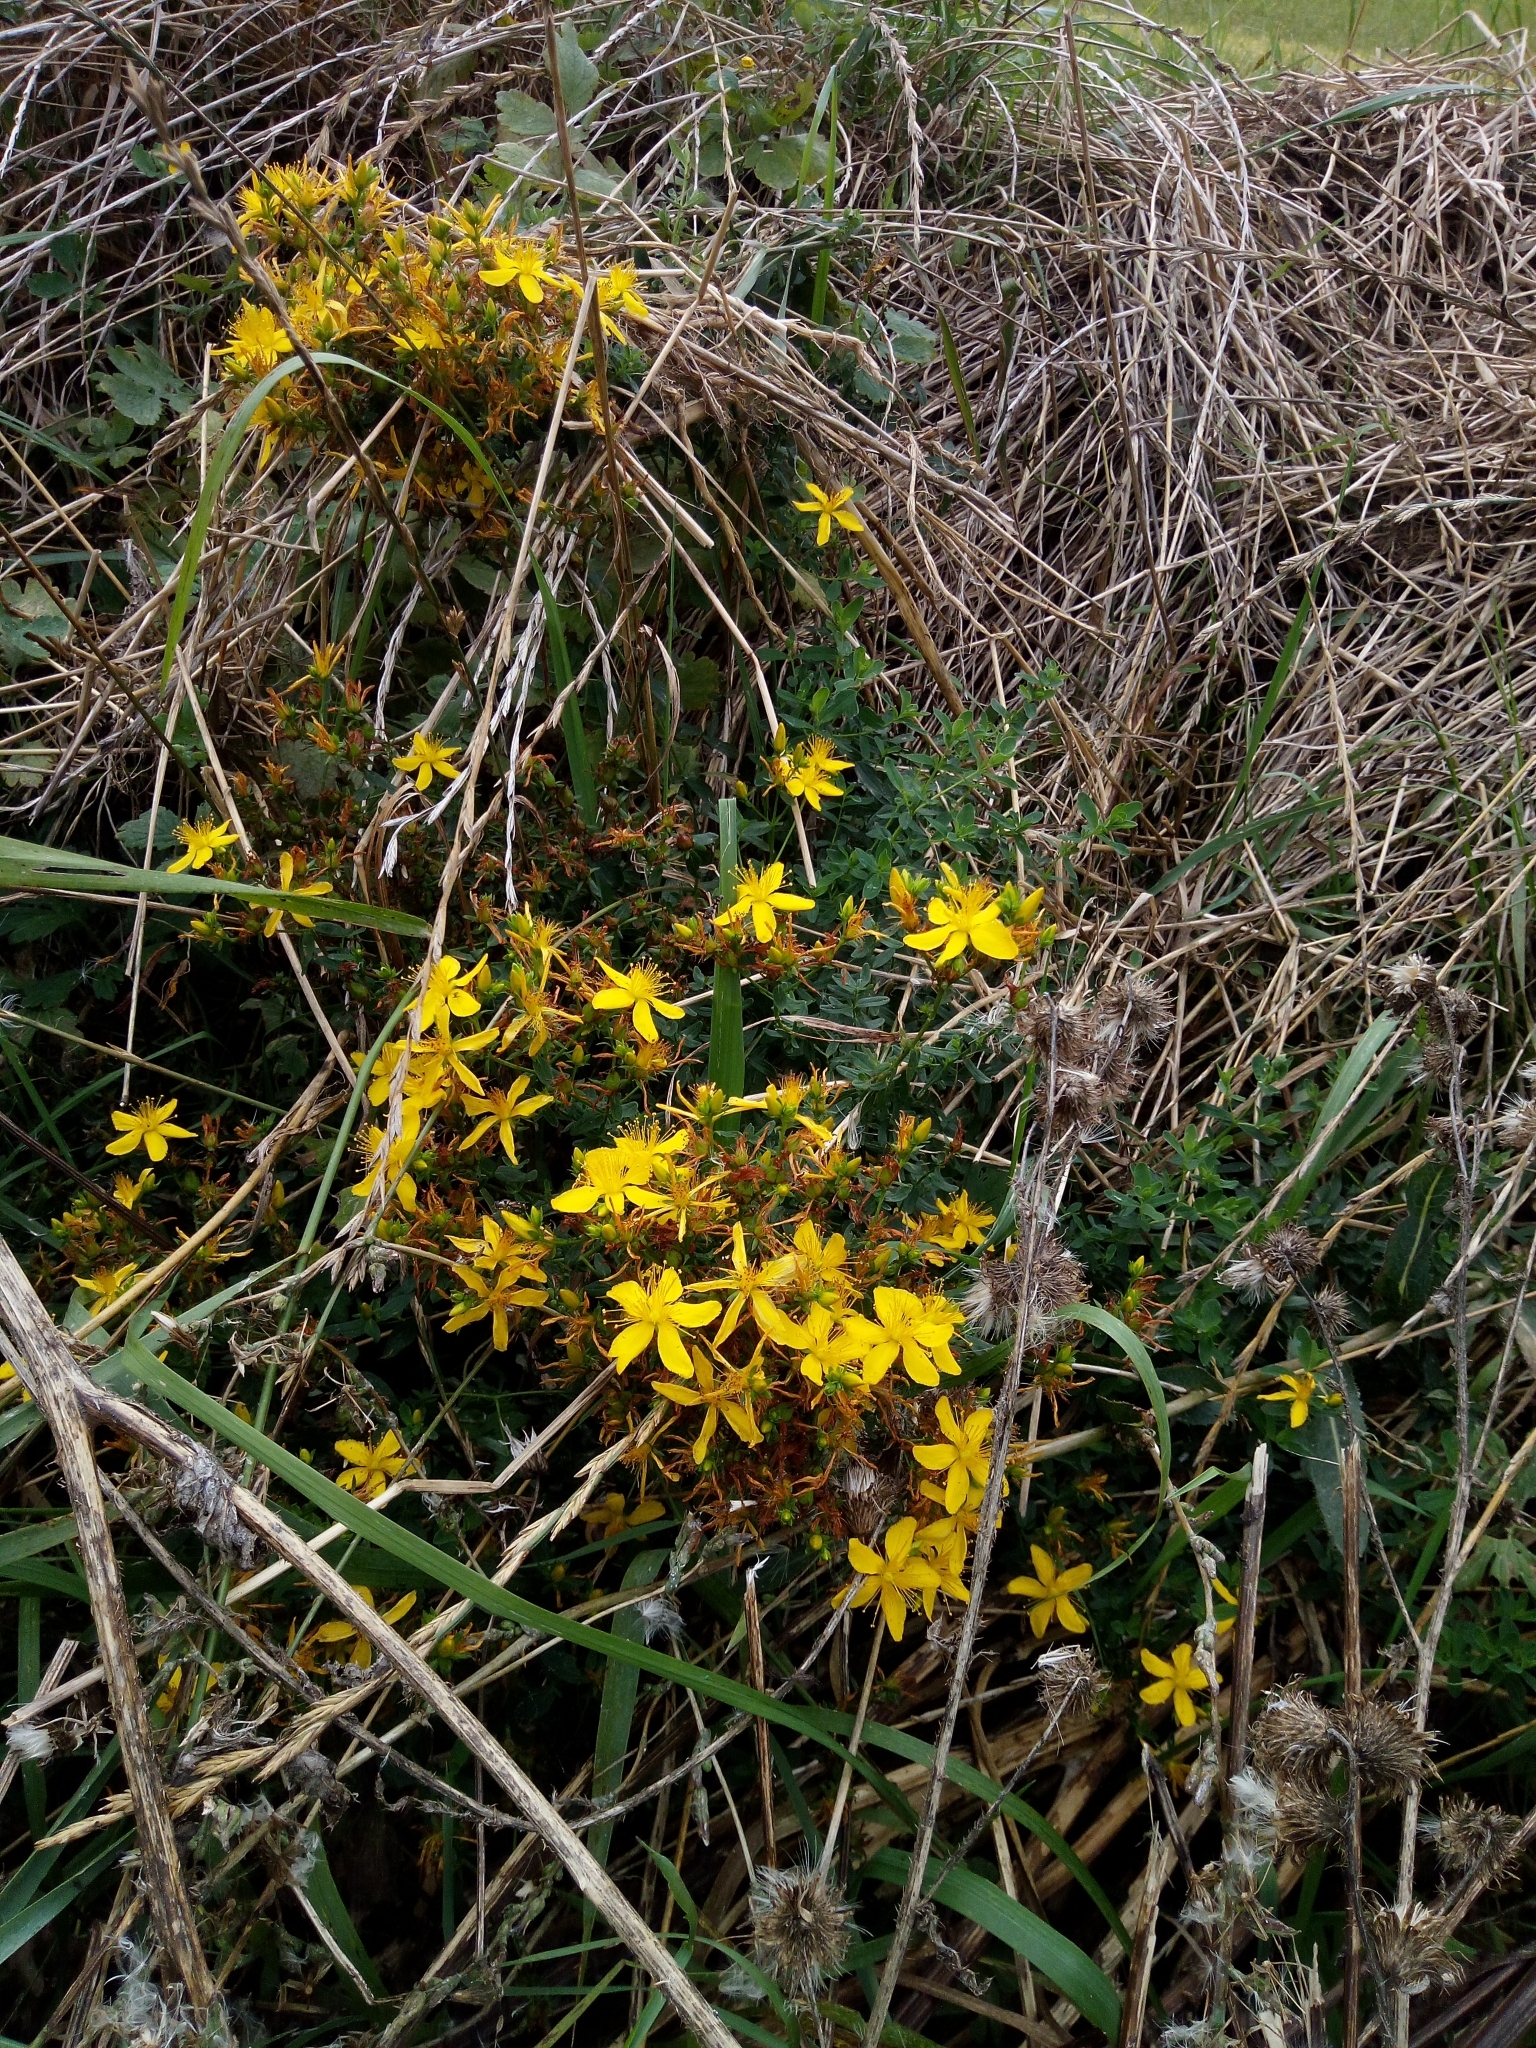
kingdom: Plantae
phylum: Tracheophyta
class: Magnoliopsida
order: Malpighiales
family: Hypericaceae
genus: Hypericum
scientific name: Hypericum perforatum
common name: Common st. johnswort
